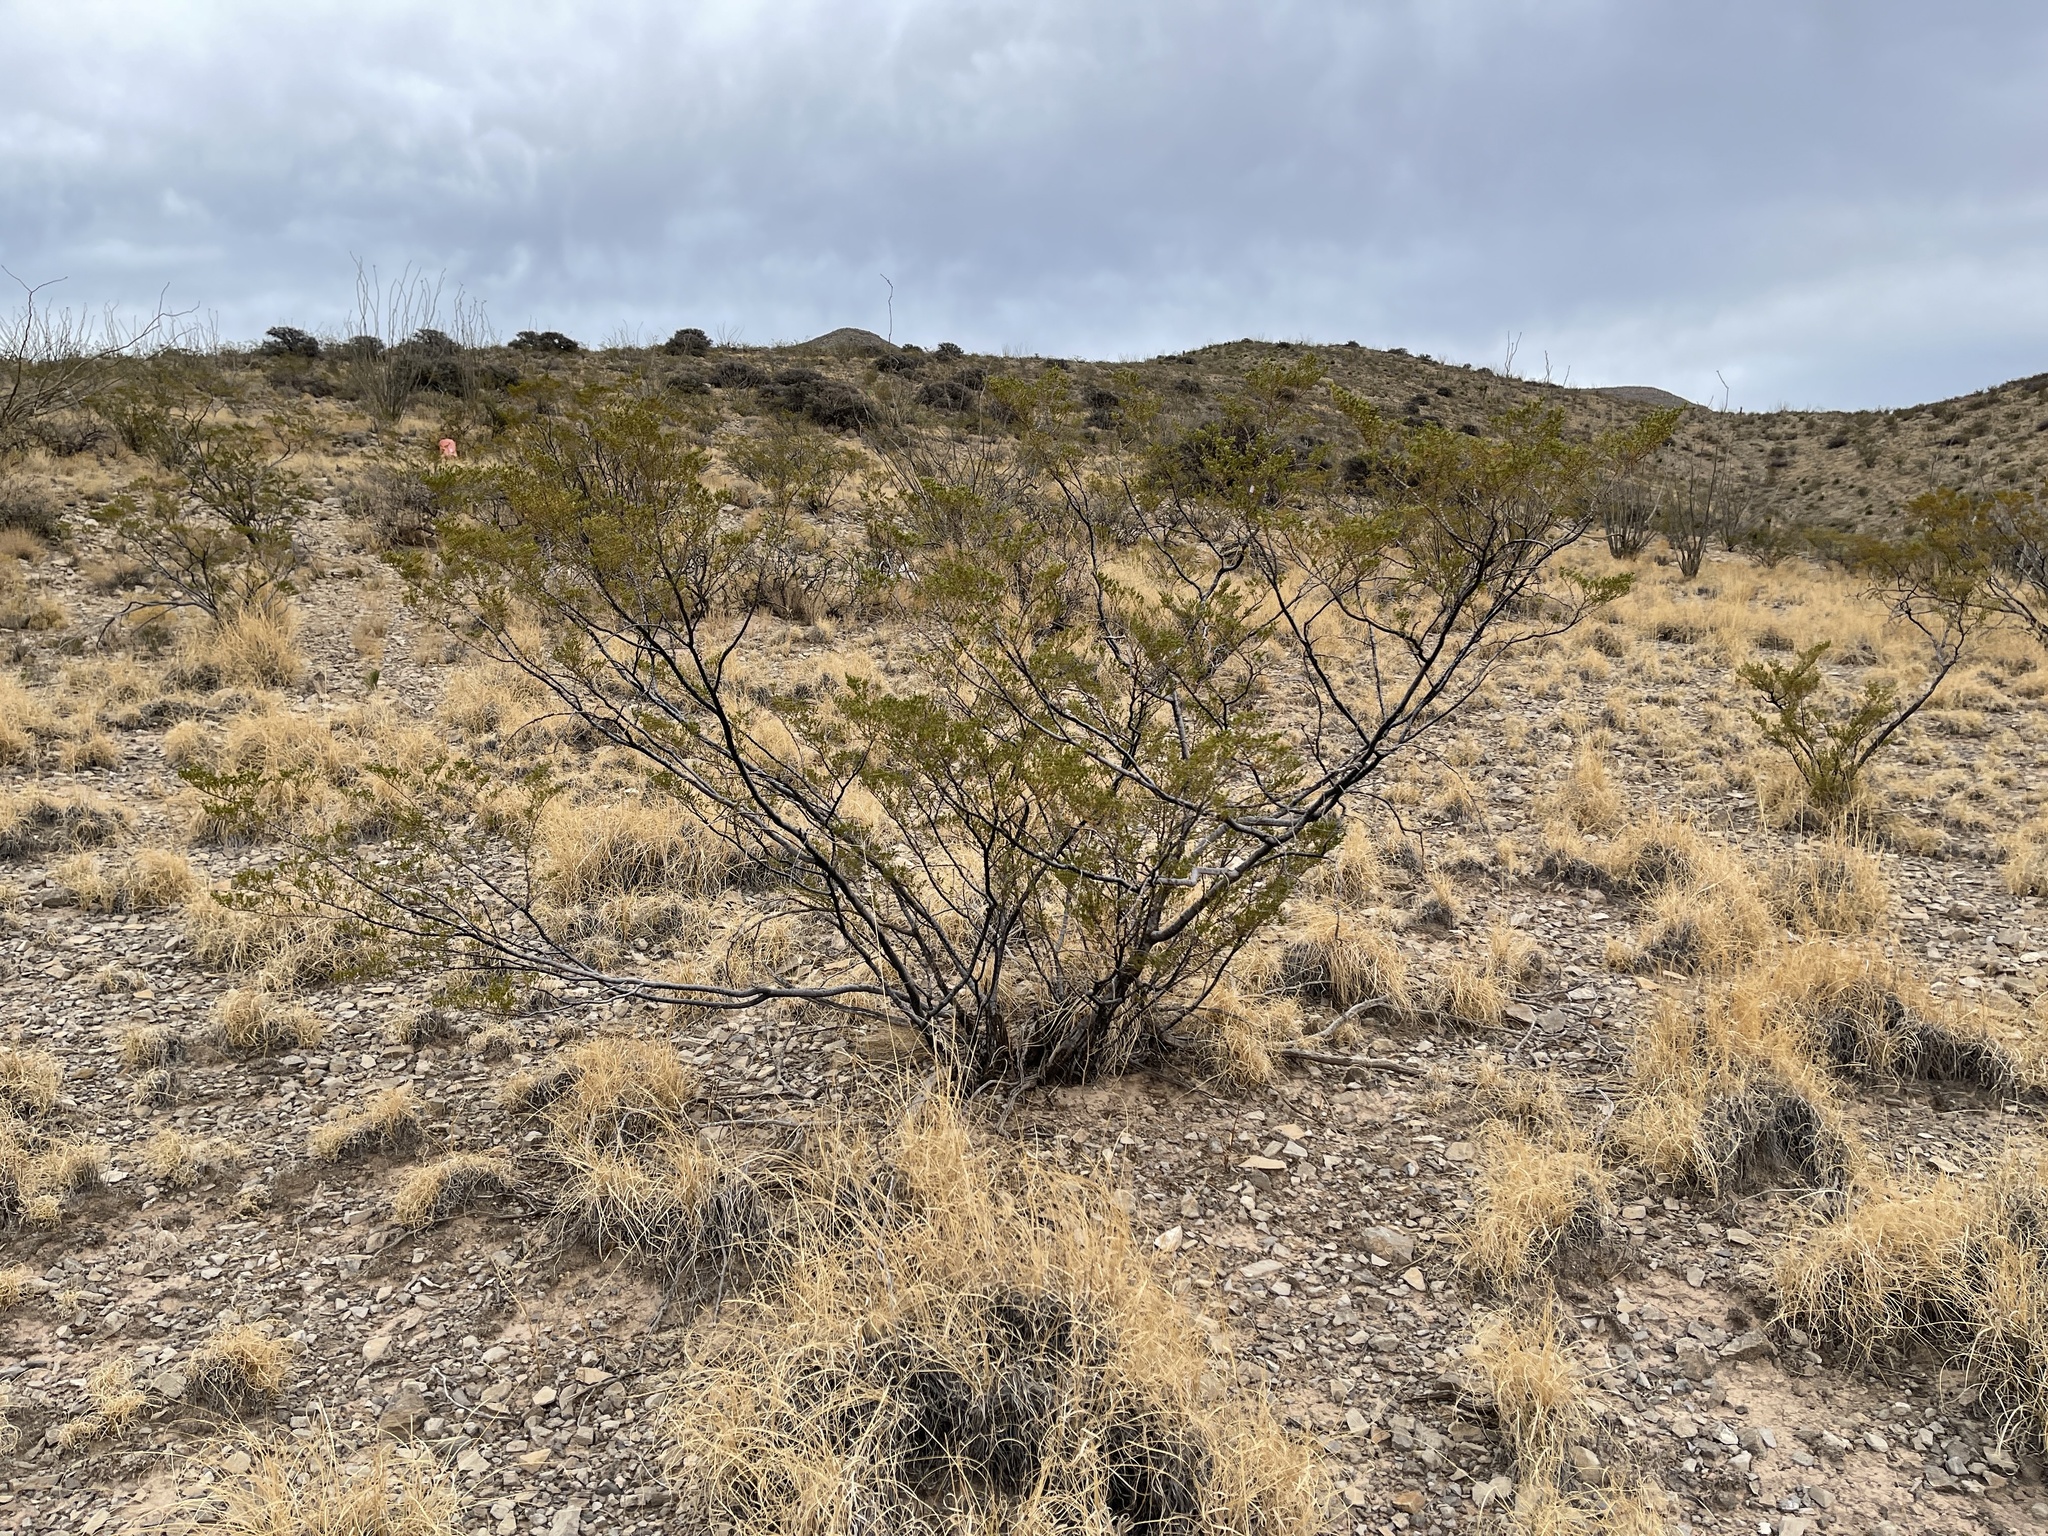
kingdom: Plantae
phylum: Tracheophyta
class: Magnoliopsida
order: Zygophyllales
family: Zygophyllaceae
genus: Larrea
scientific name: Larrea tridentata
